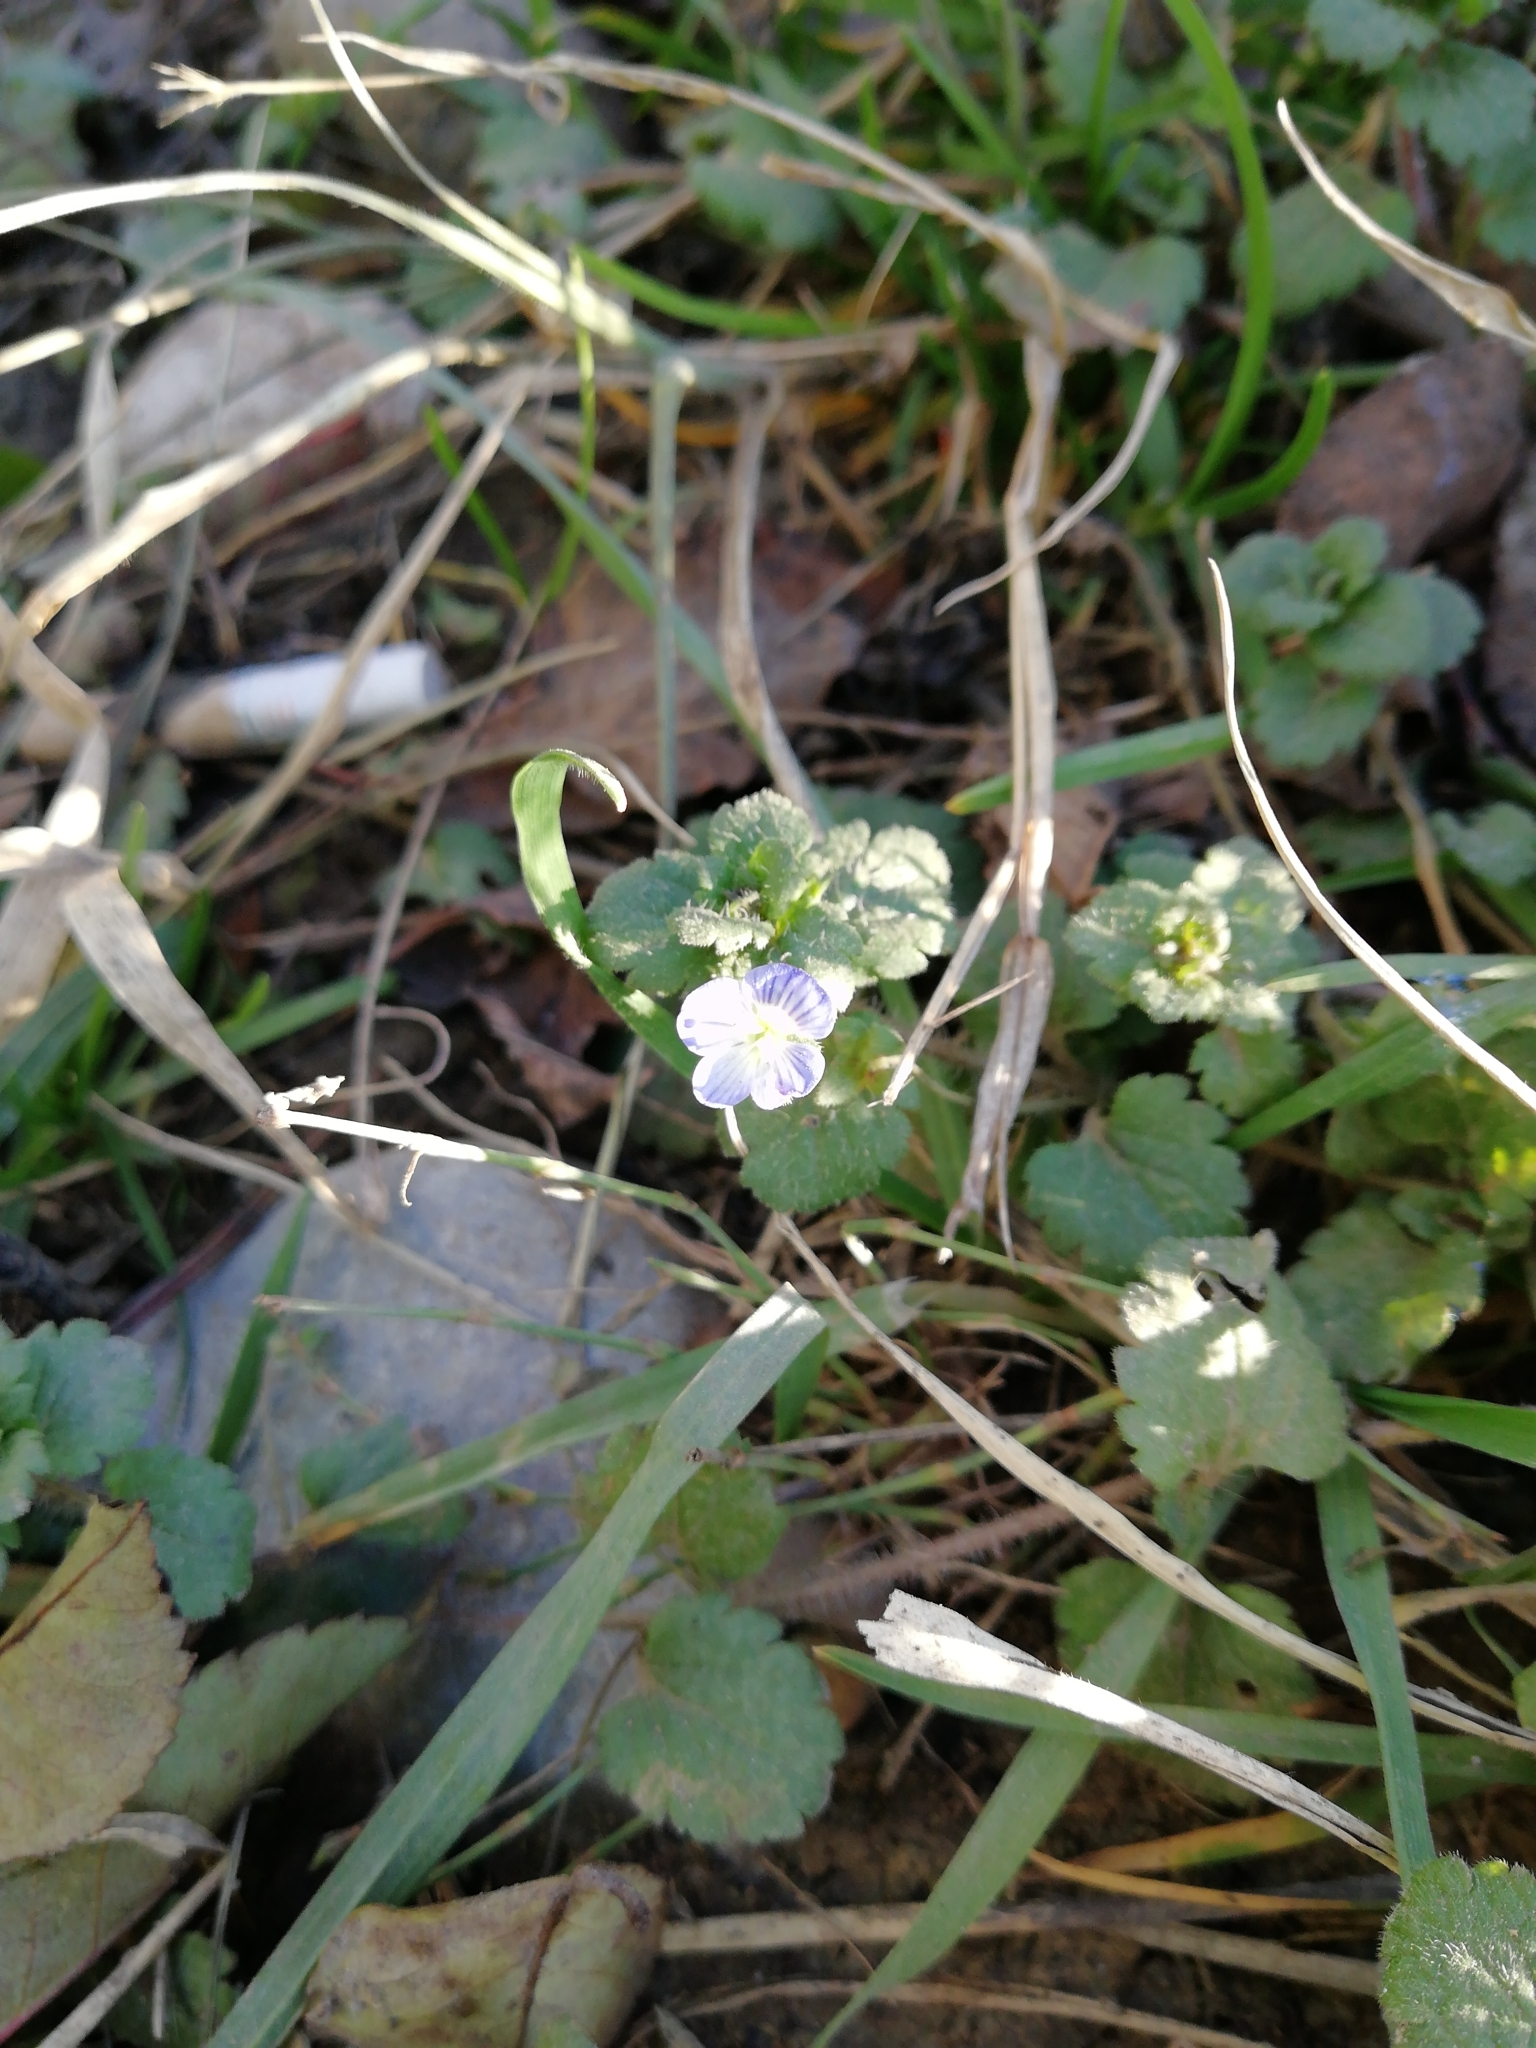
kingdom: Plantae
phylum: Tracheophyta
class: Magnoliopsida
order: Lamiales
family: Plantaginaceae
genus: Veronica
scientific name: Veronica persica
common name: Common field-speedwell
